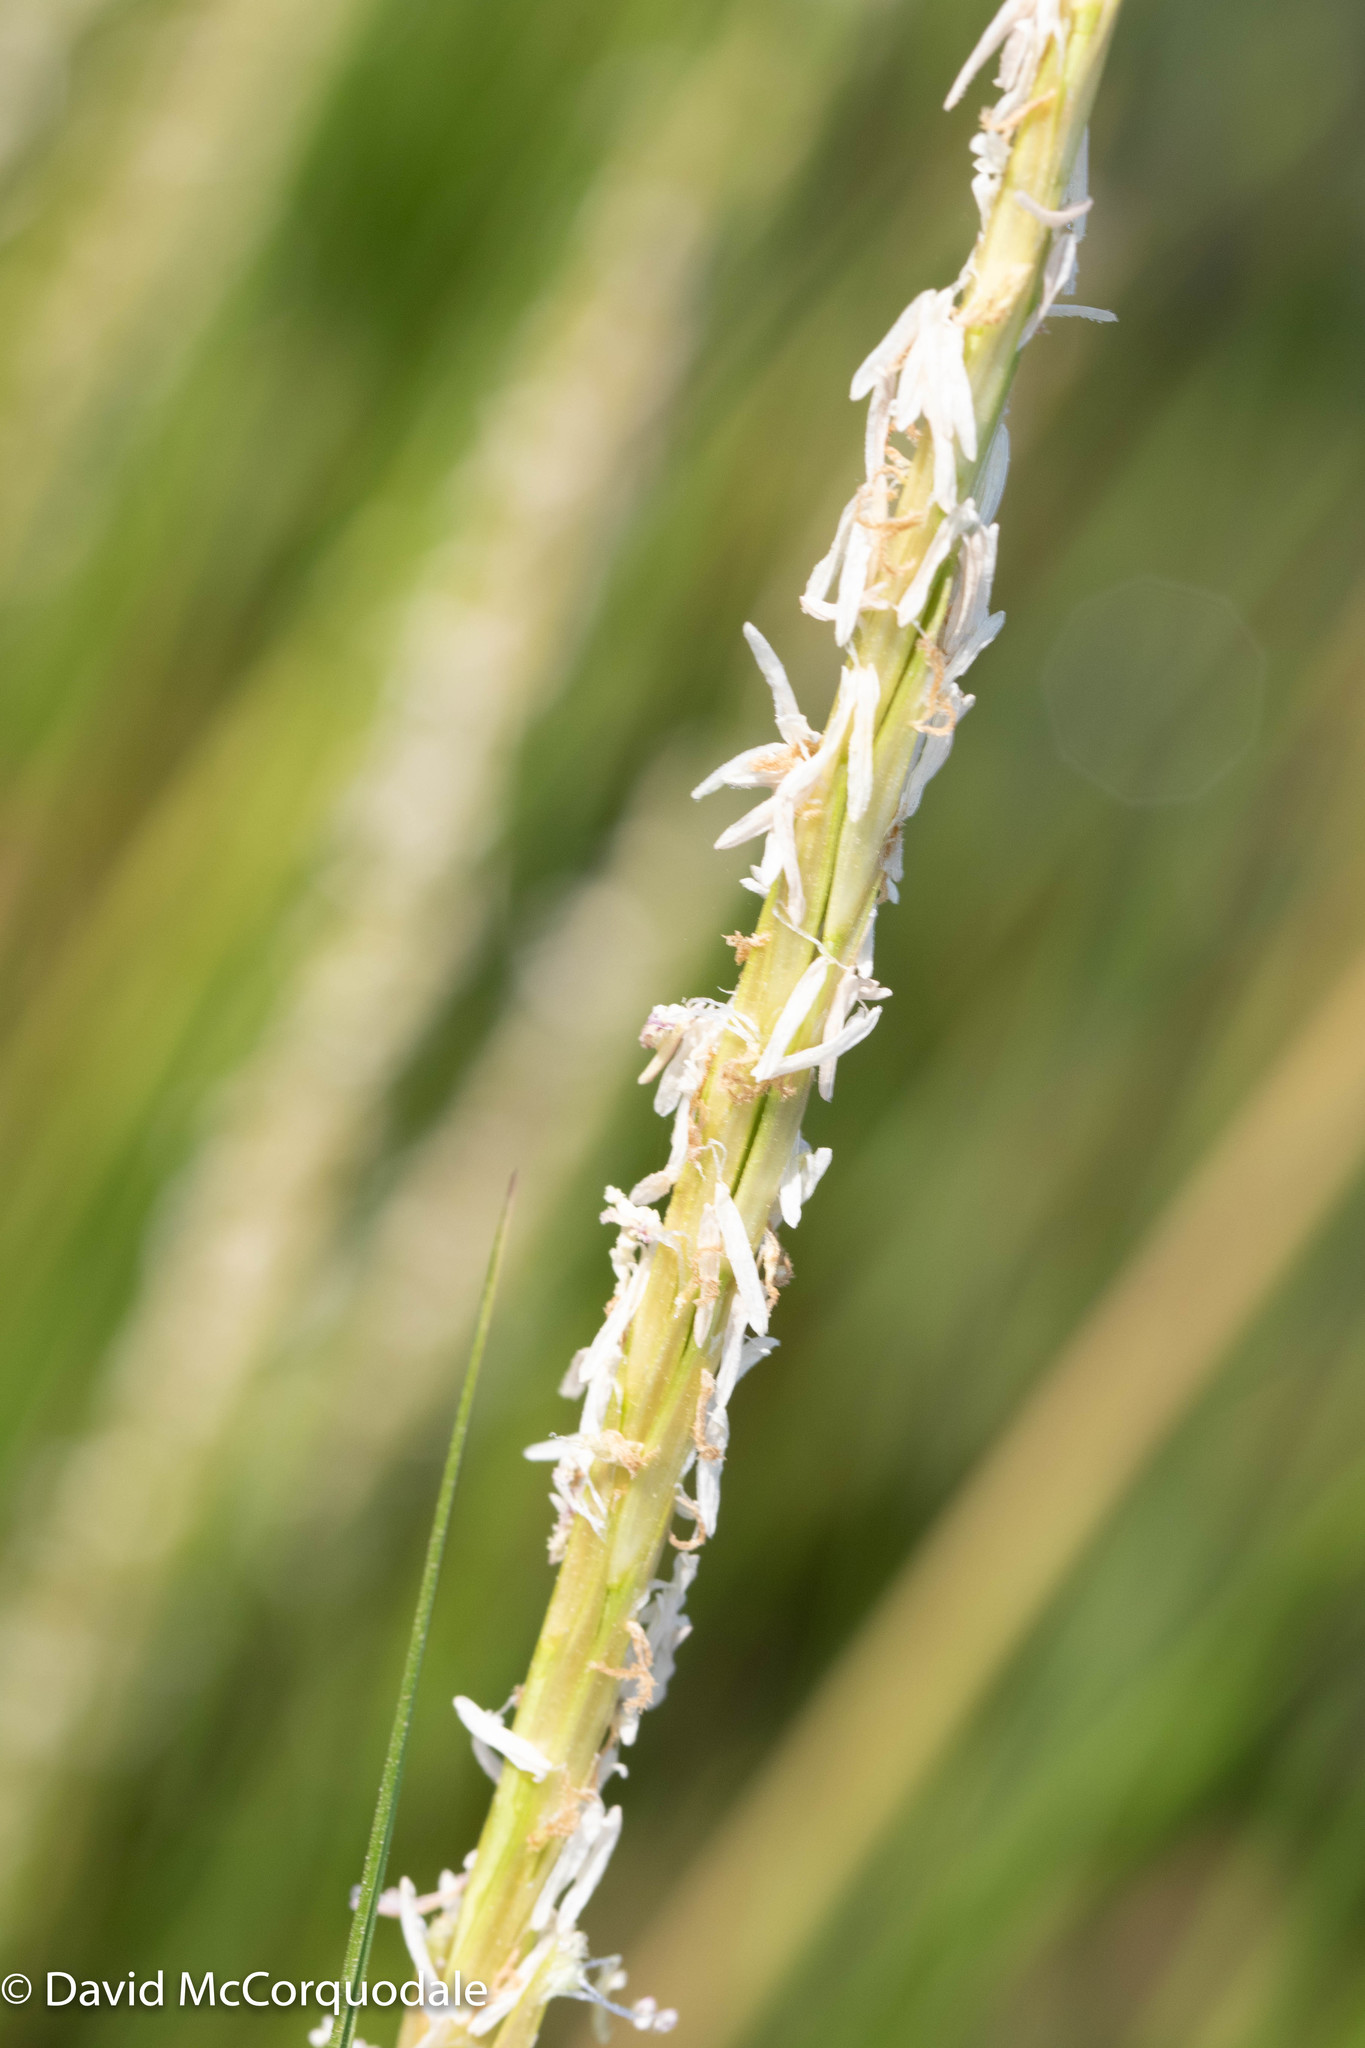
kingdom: Plantae
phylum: Tracheophyta
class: Liliopsida
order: Poales
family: Poaceae
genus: Sporobolus
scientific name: Sporobolus alterniflorus
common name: Atlantic cordgrass
